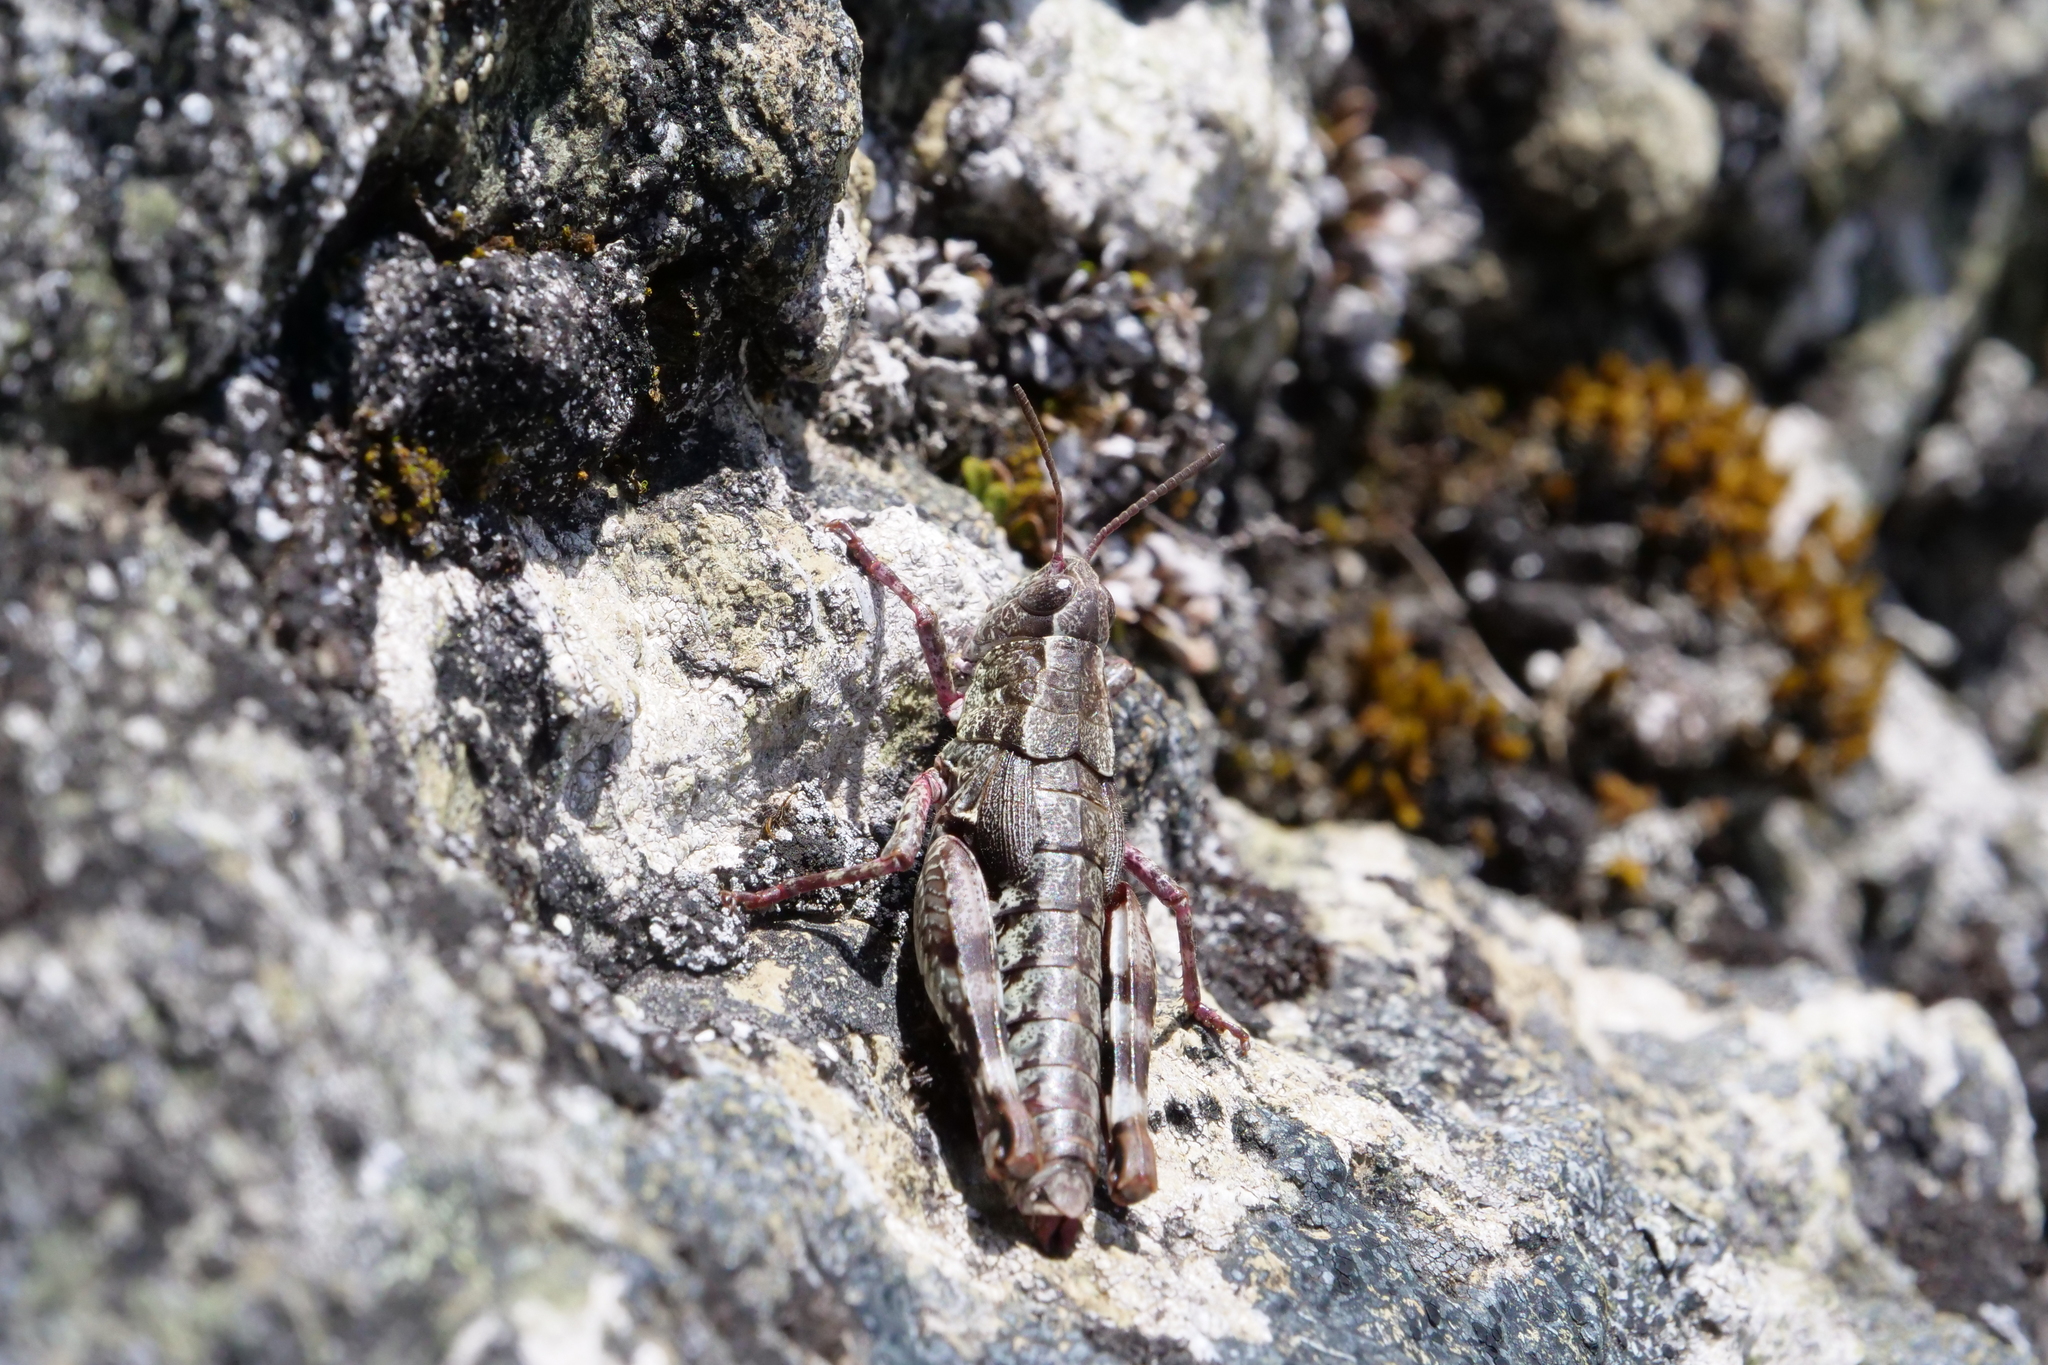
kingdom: Animalia
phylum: Arthropoda
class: Insecta
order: Orthoptera
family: Acrididae
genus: Sigaus
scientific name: Sigaus australis
